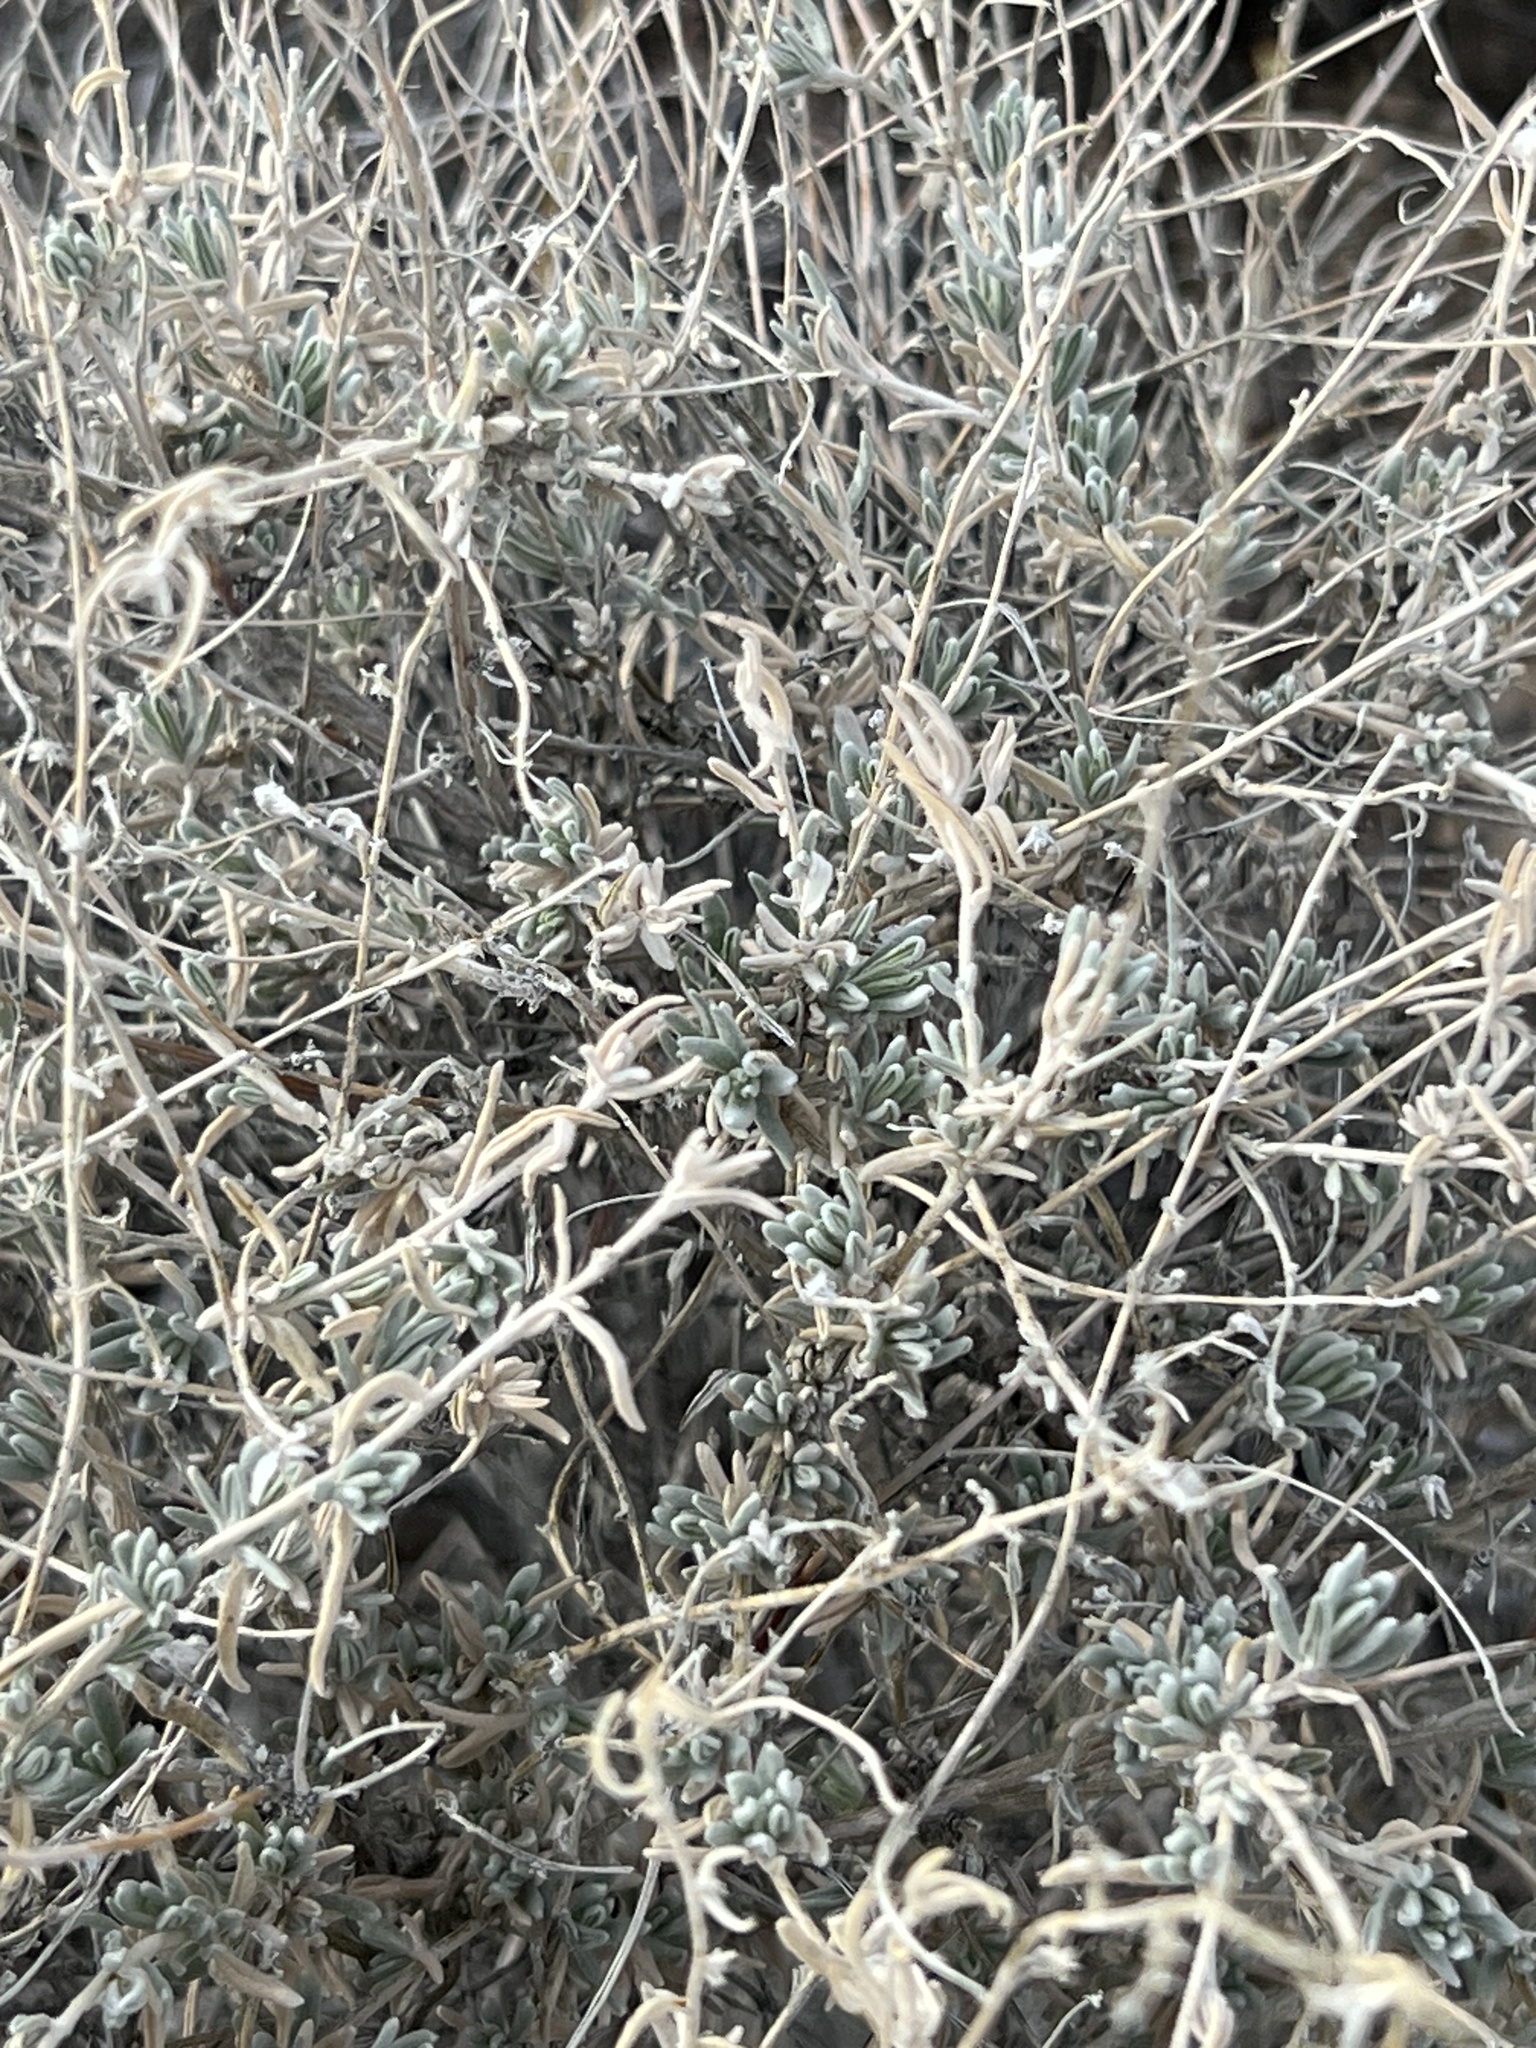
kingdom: Plantae
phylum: Tracheophyta
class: Magnoliopsida
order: Caryophyllales
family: Amaranthaceae
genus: Krascheninnikovia
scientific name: Krascheninnikovia lanata
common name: Winterfat
